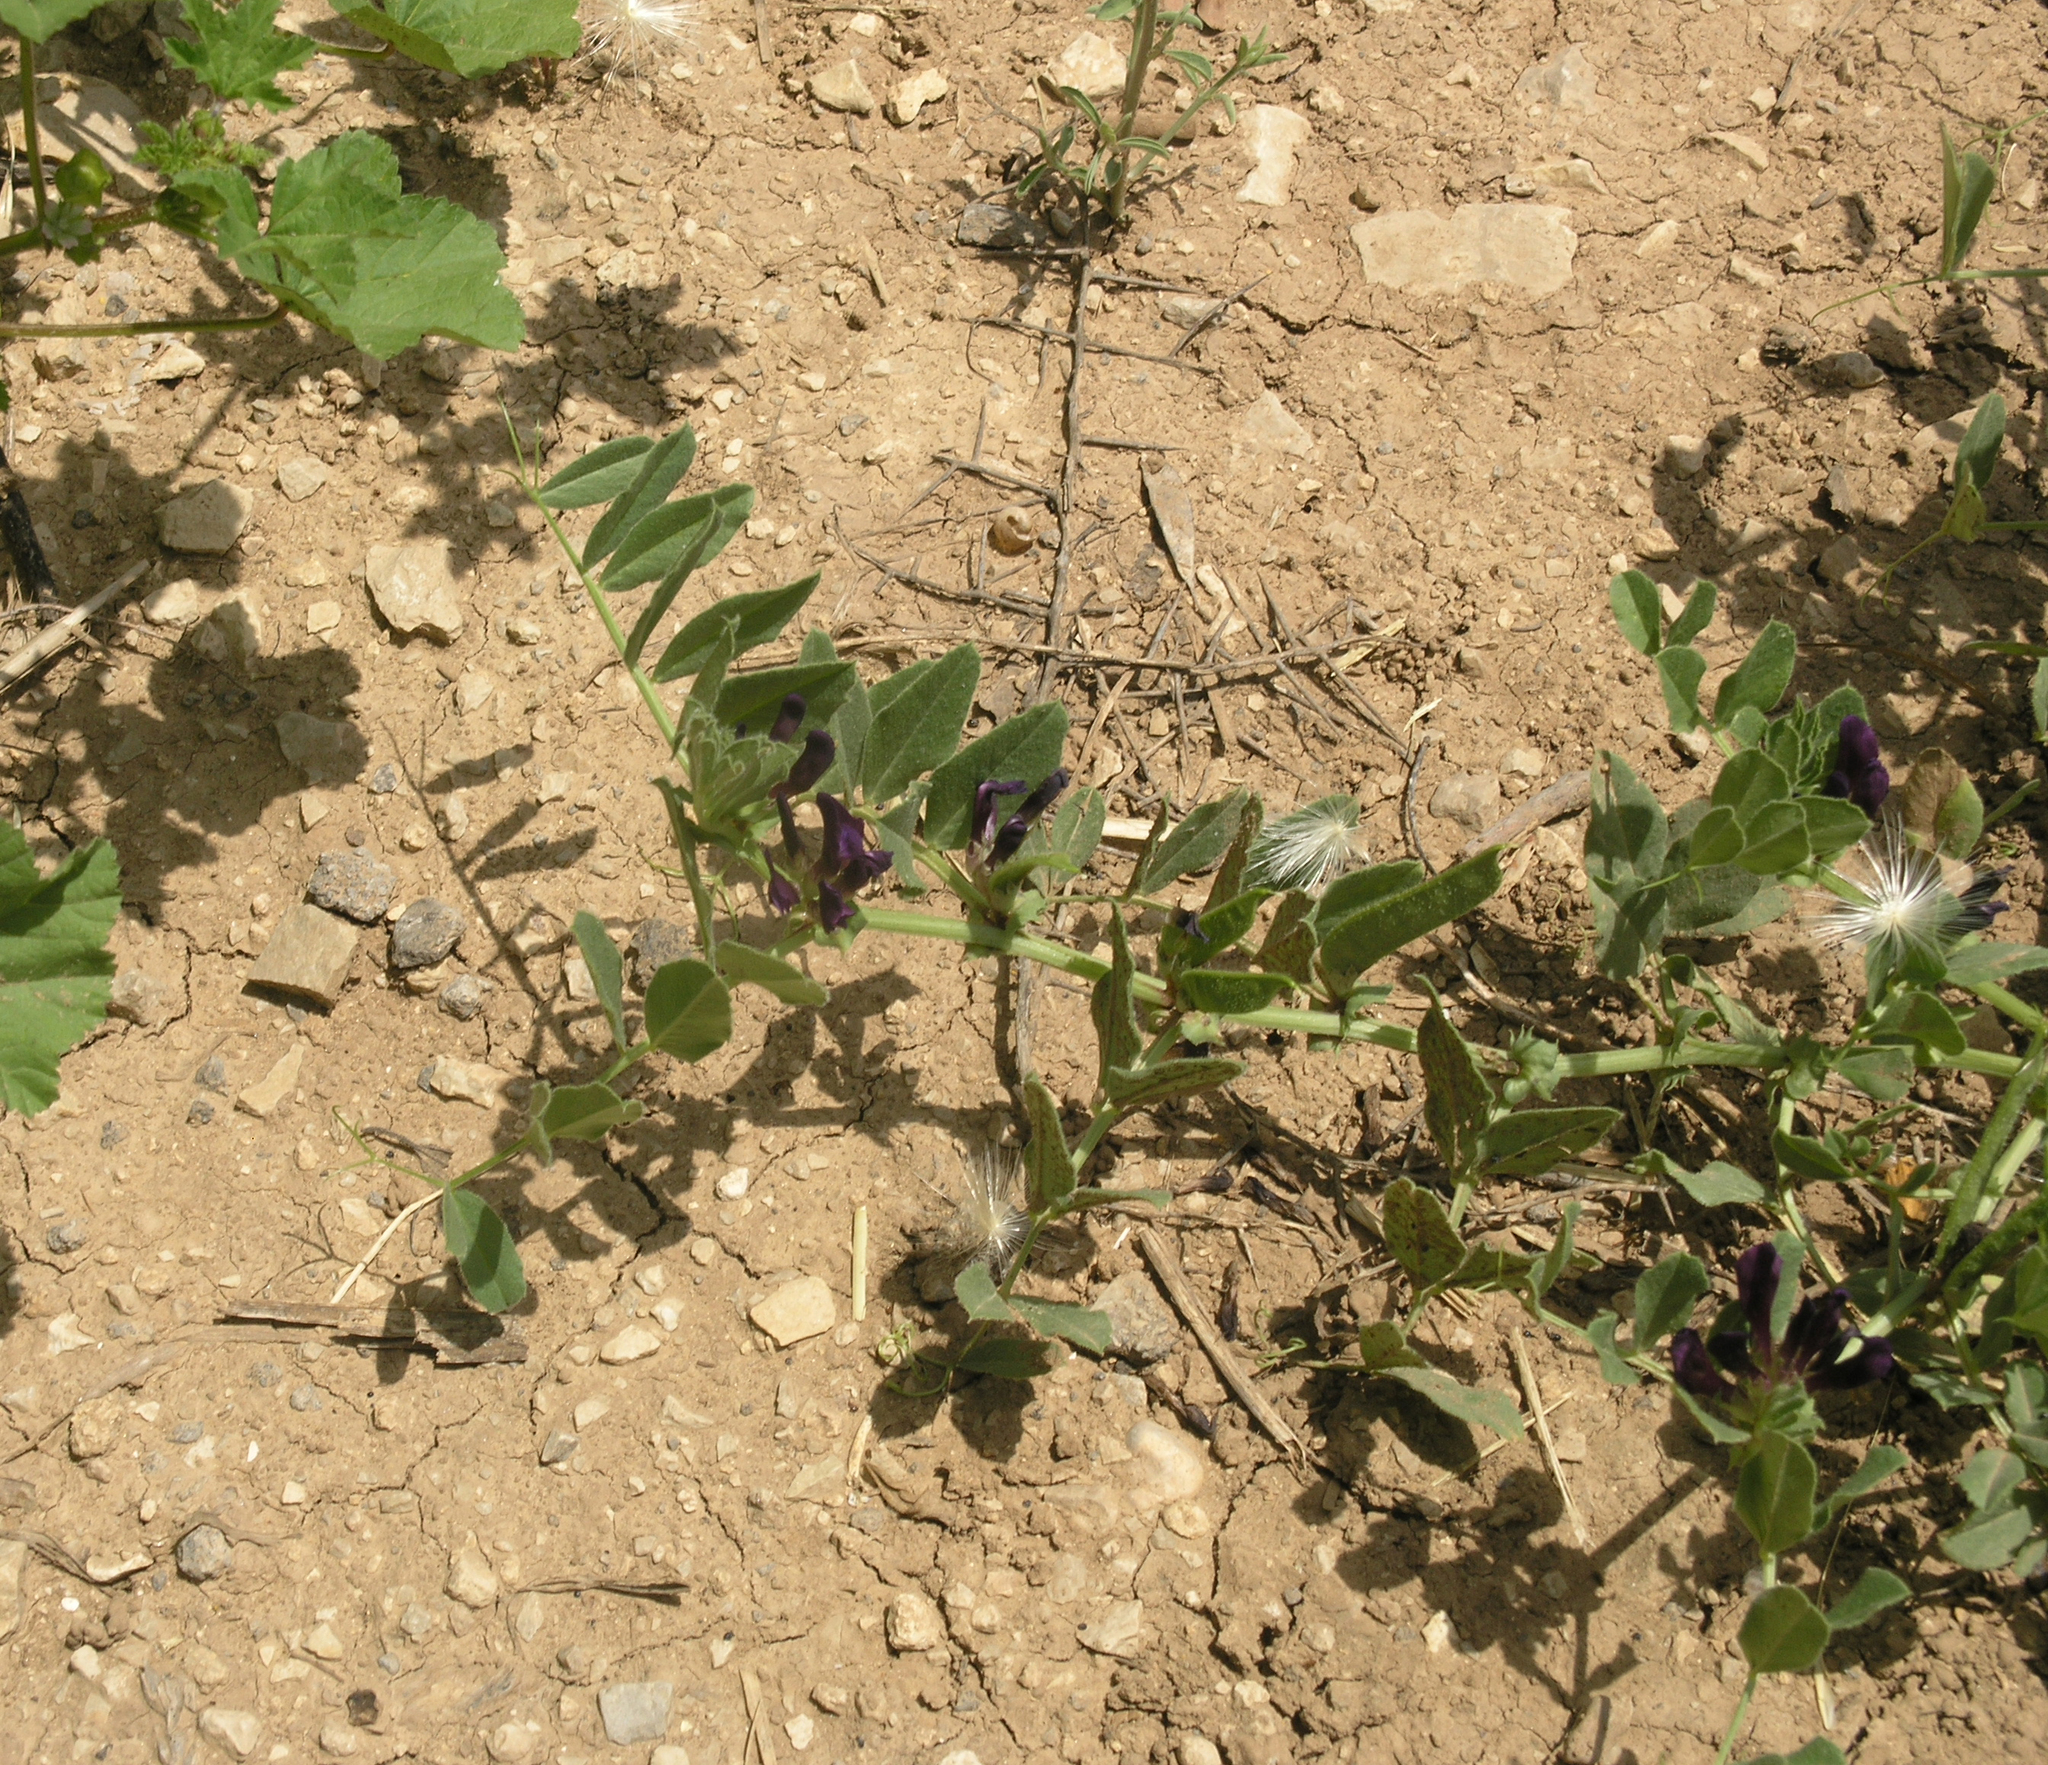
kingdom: Plantae
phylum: Tracheophyta
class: Magnoliopsida
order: Fabales
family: Fabaceae
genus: Vicia
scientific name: Vicia narbonensis
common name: Narbonne vetch
